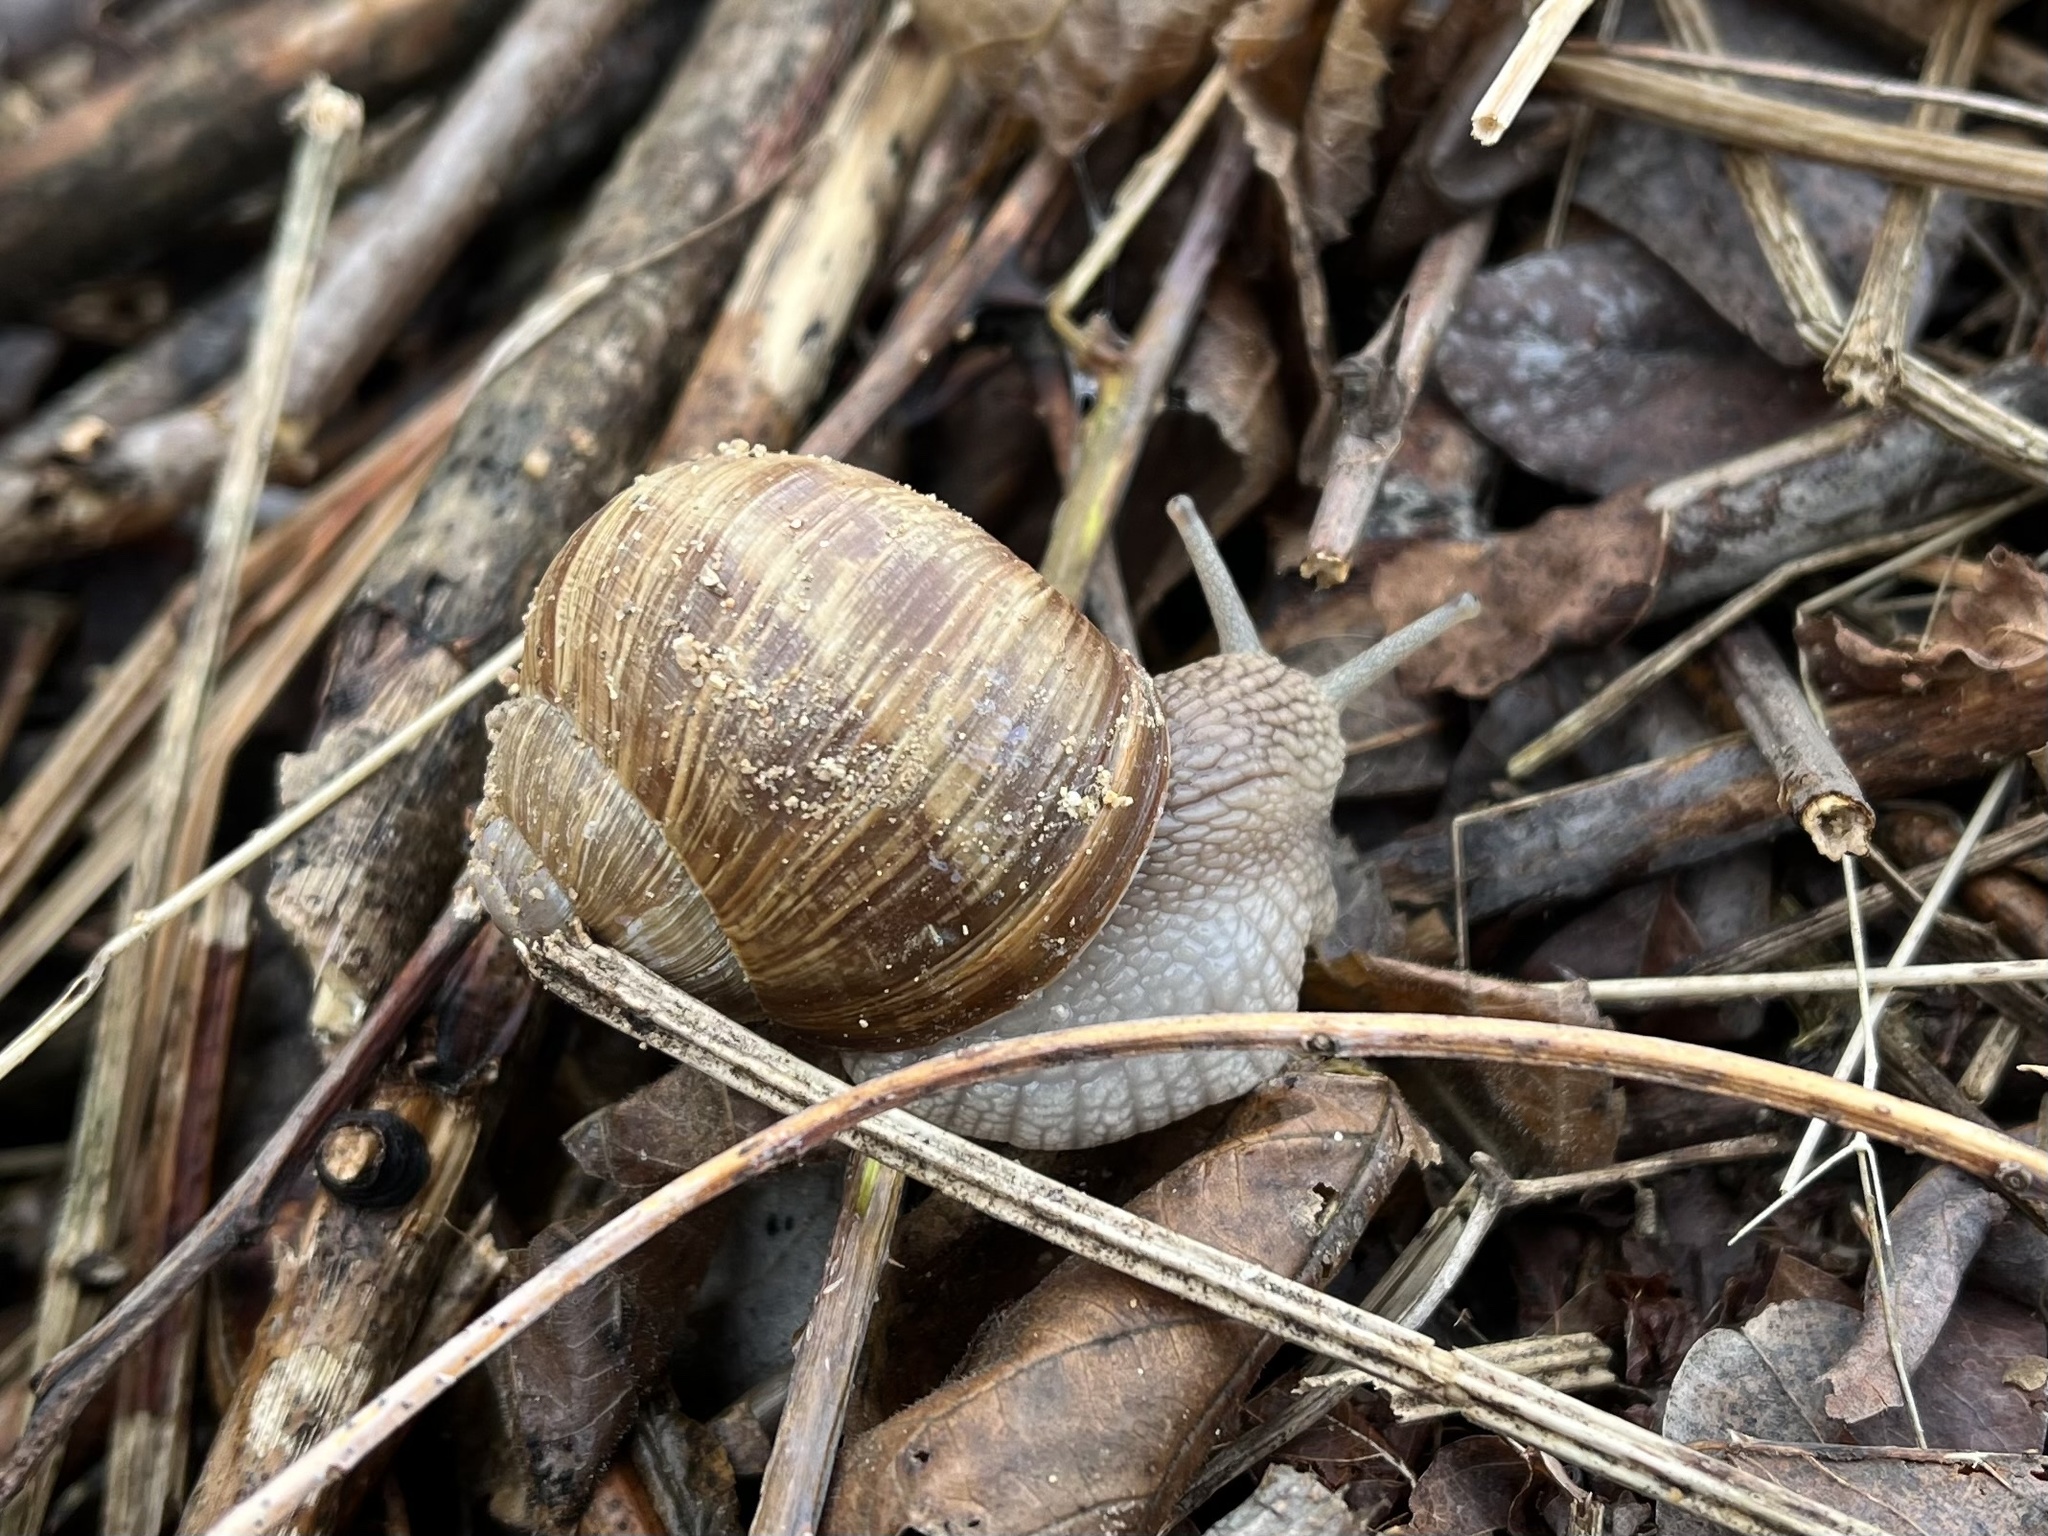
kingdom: Animalia
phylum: Mollusca
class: Gastropoda
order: Stylommatophora
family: Helicidae
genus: Helix
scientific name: Helix pomatia
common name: Roman snail
